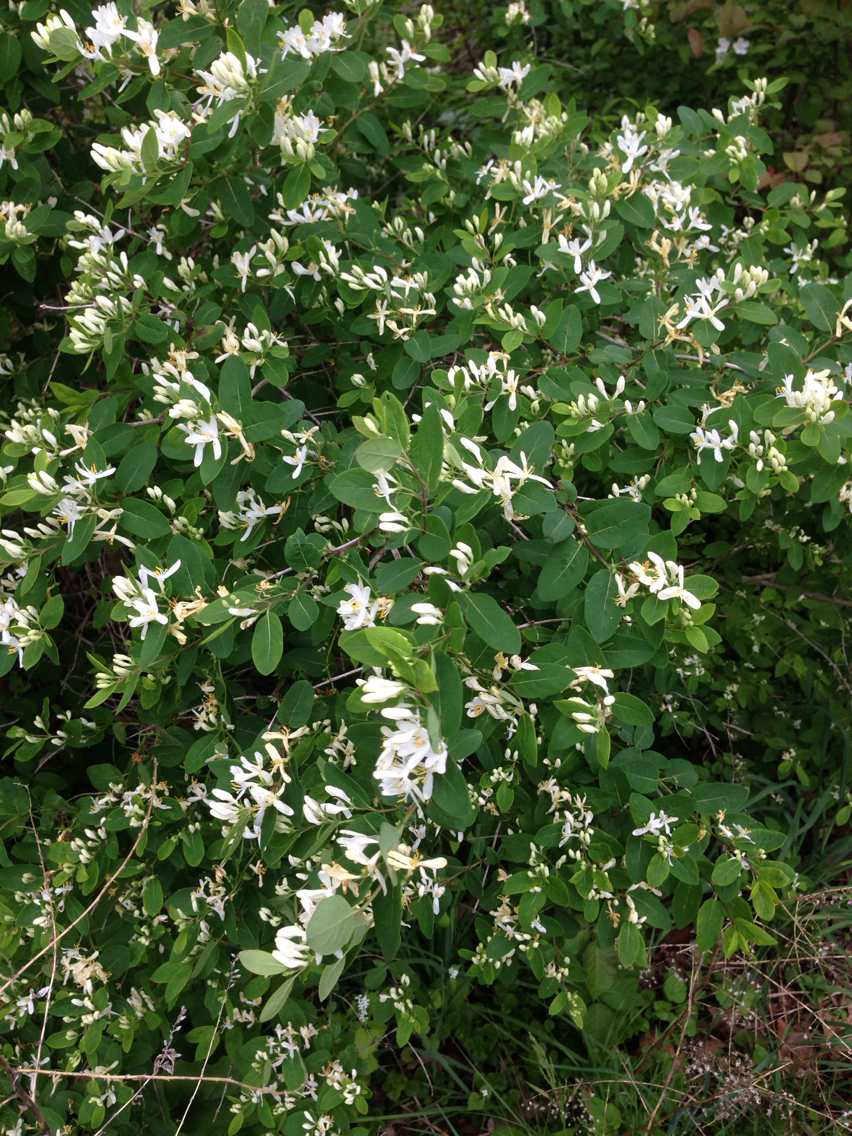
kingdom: Plantae
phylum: Tracheophyta
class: Magnoliopsida
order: Dipsacales
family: Caprifoliaceae
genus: Lonicera
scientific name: Lonicera morrowii
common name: Morrow's honeysuckle
